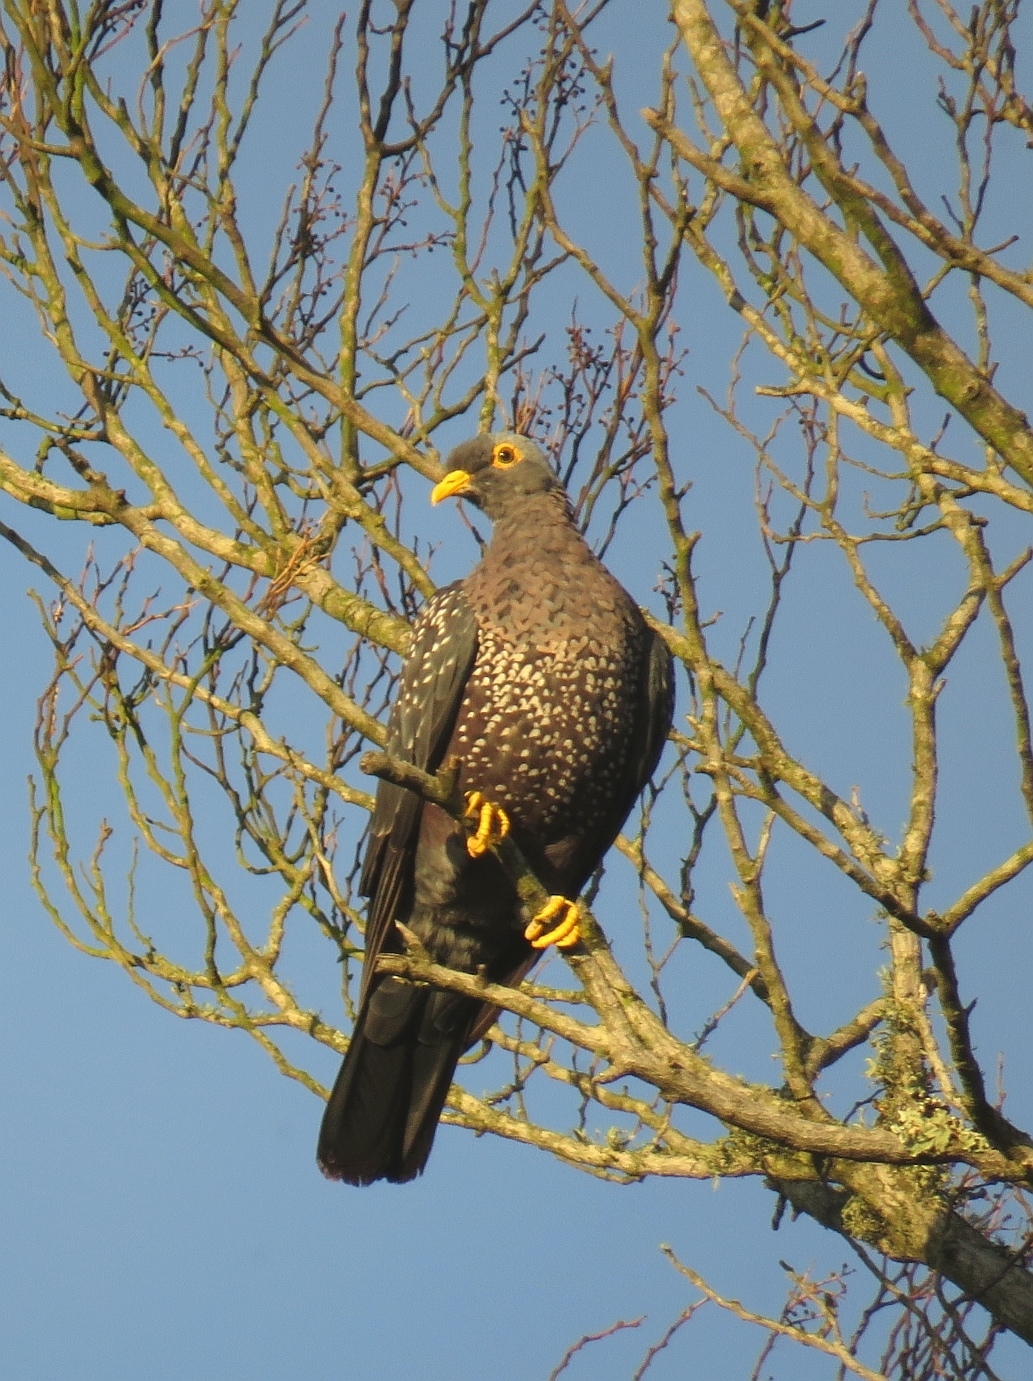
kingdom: Animalia
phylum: Chordata
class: Aves
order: Columbiformes
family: Columbidae
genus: Columba
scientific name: Columba arquatrix
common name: African olive pigeon
